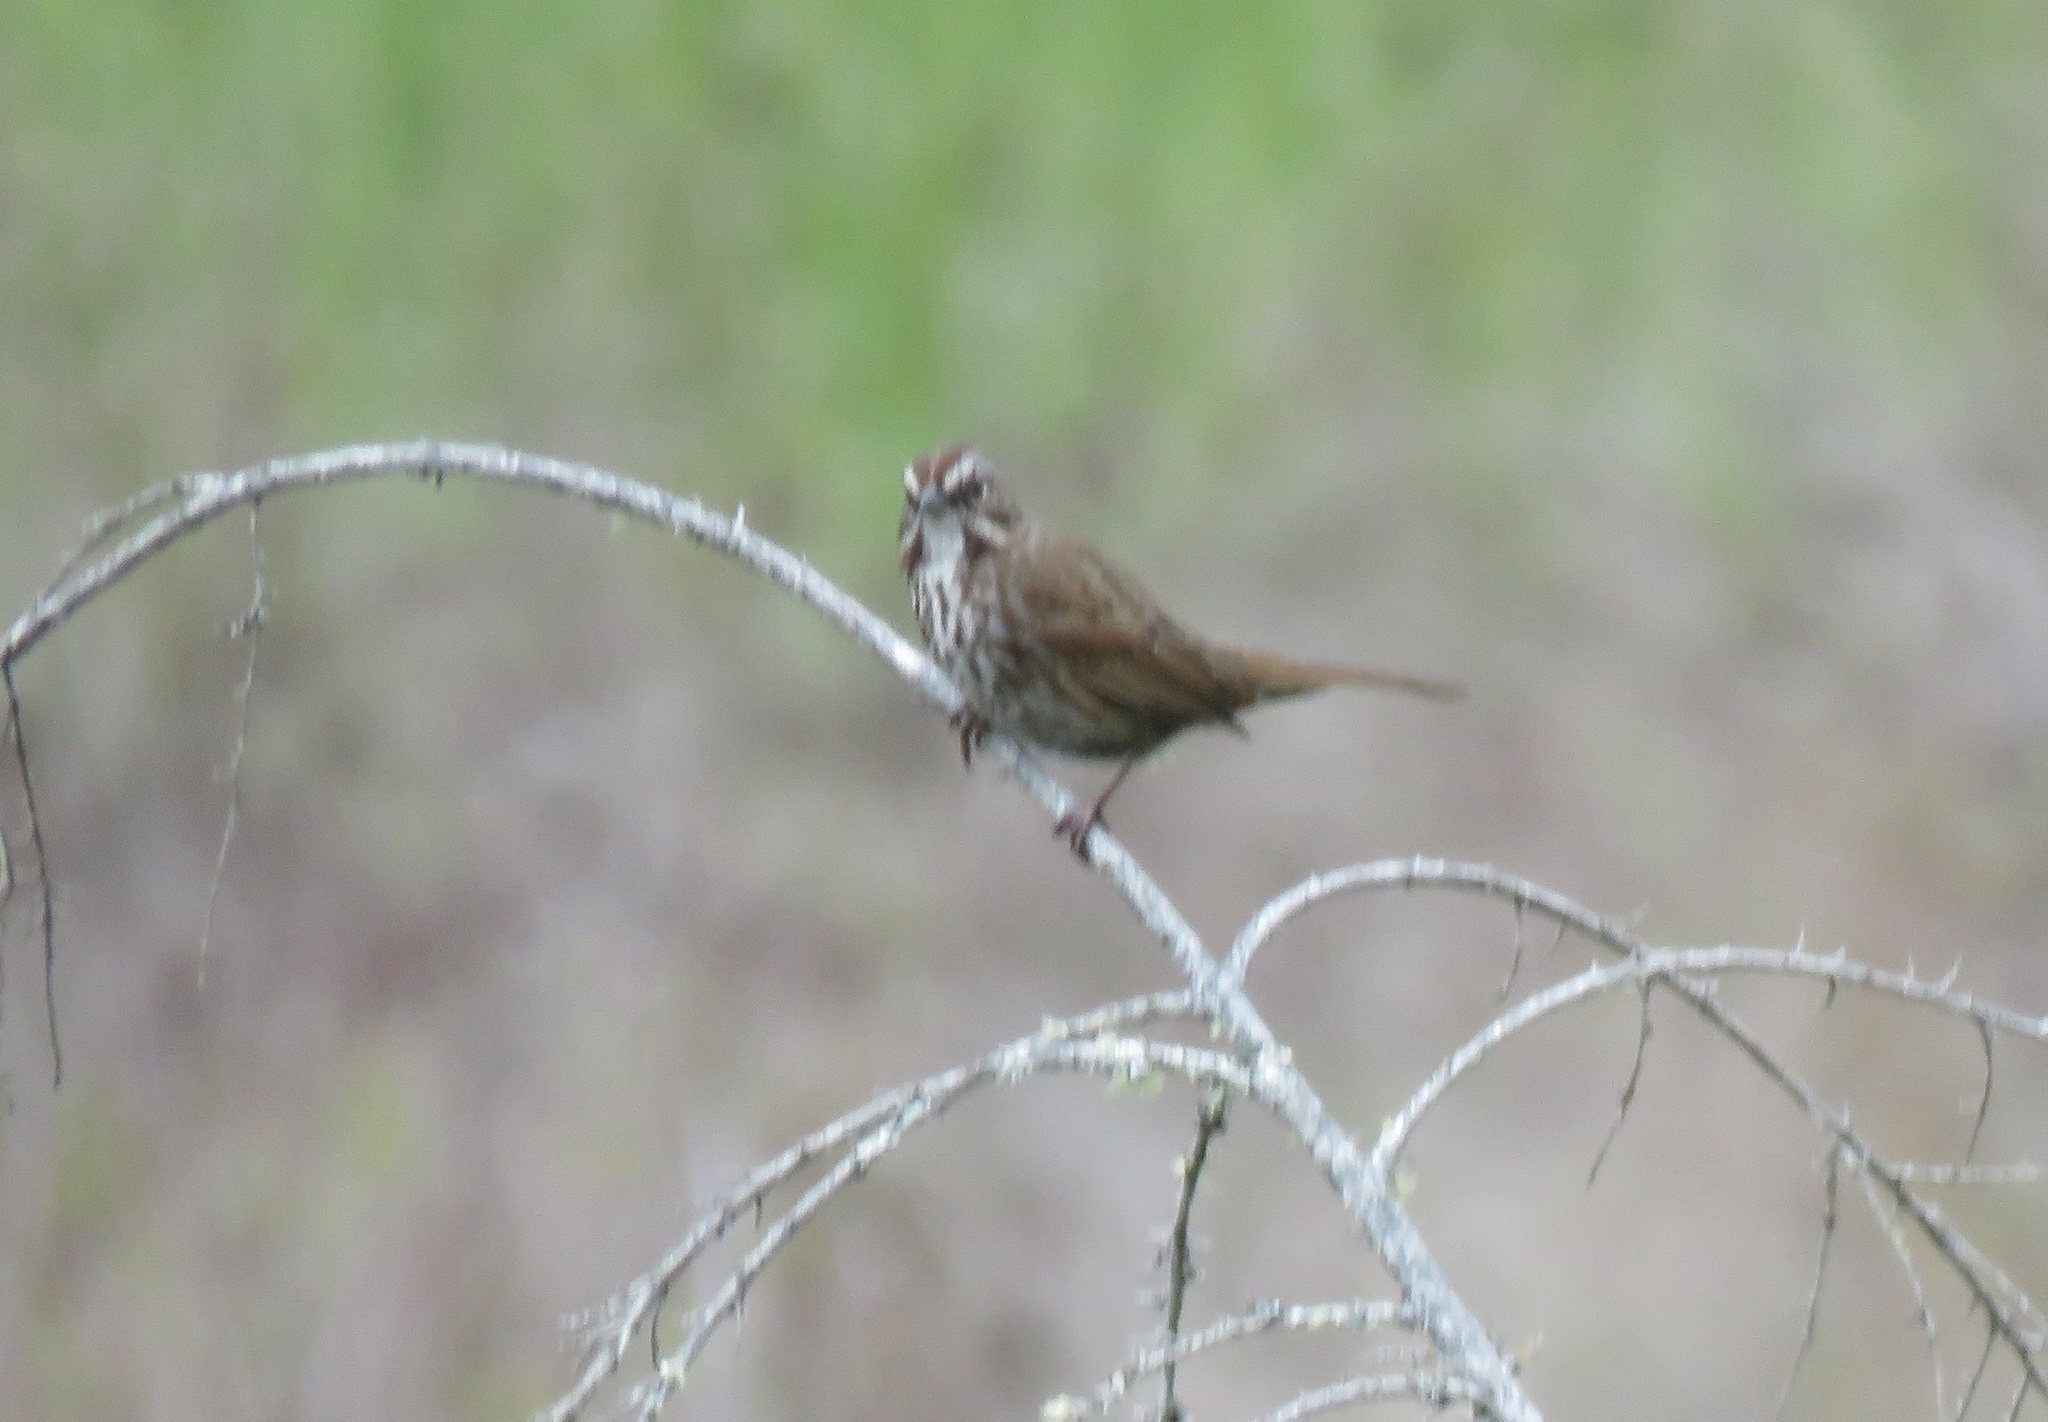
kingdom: Animalia
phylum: Chordata
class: Aves
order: Passeriformes
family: Passerellidae
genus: Melospiza
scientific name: Melospiza melodia
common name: Song sparrow
